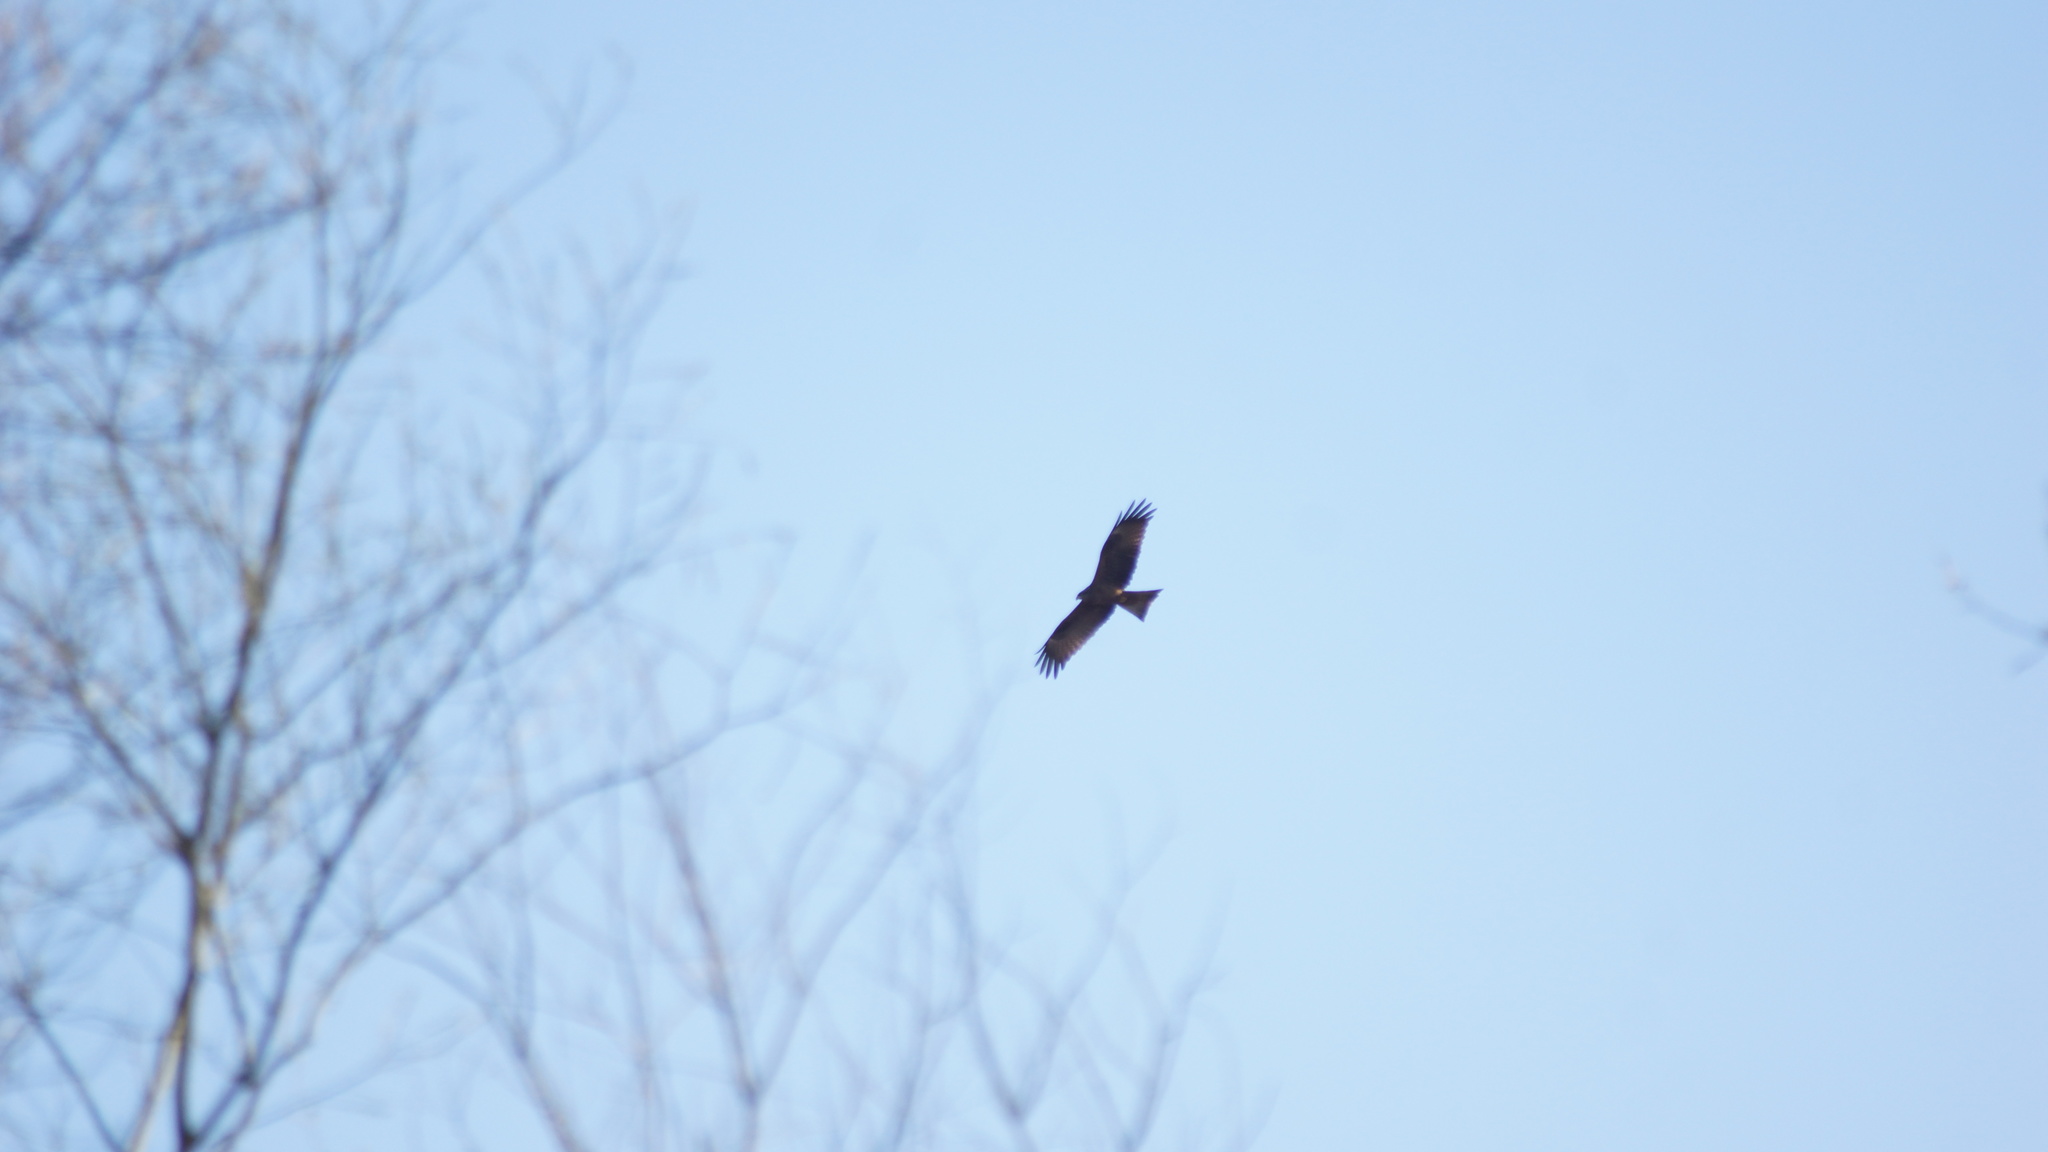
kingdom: Animalia
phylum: Chordata
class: Aves
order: Accipitriformes
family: Accipitridae
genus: Milvus
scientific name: Milvus migrans
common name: Black kite
